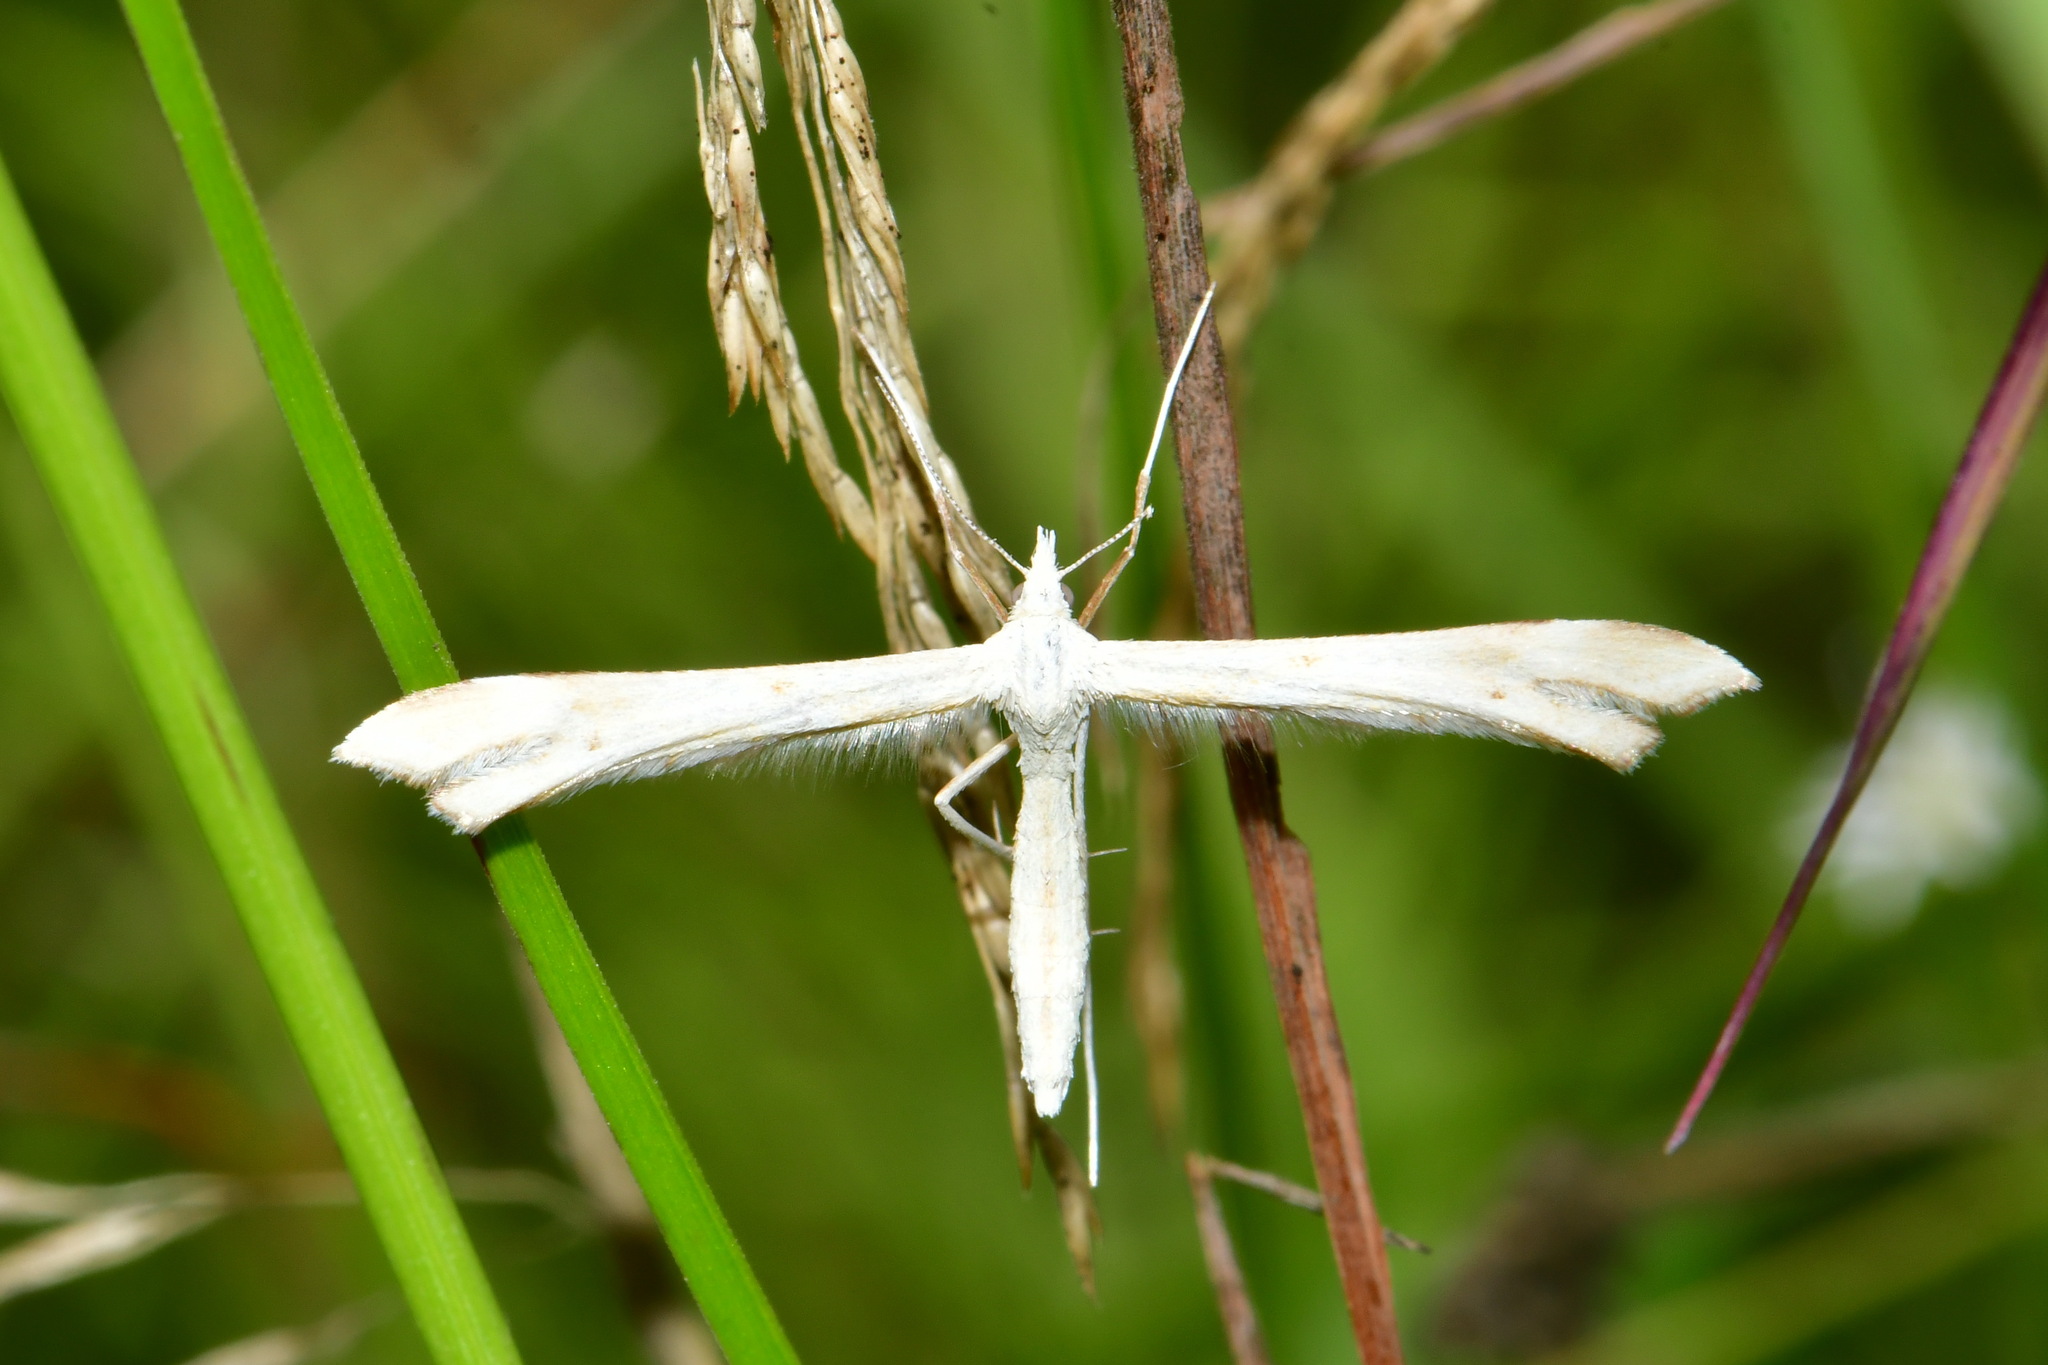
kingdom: Animalia
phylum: Arthropoda
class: Insecta
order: Lepidoptera
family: Pterophoridae
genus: Gillmeria
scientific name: Gillmeria pallidactyla
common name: Yarrow plume
